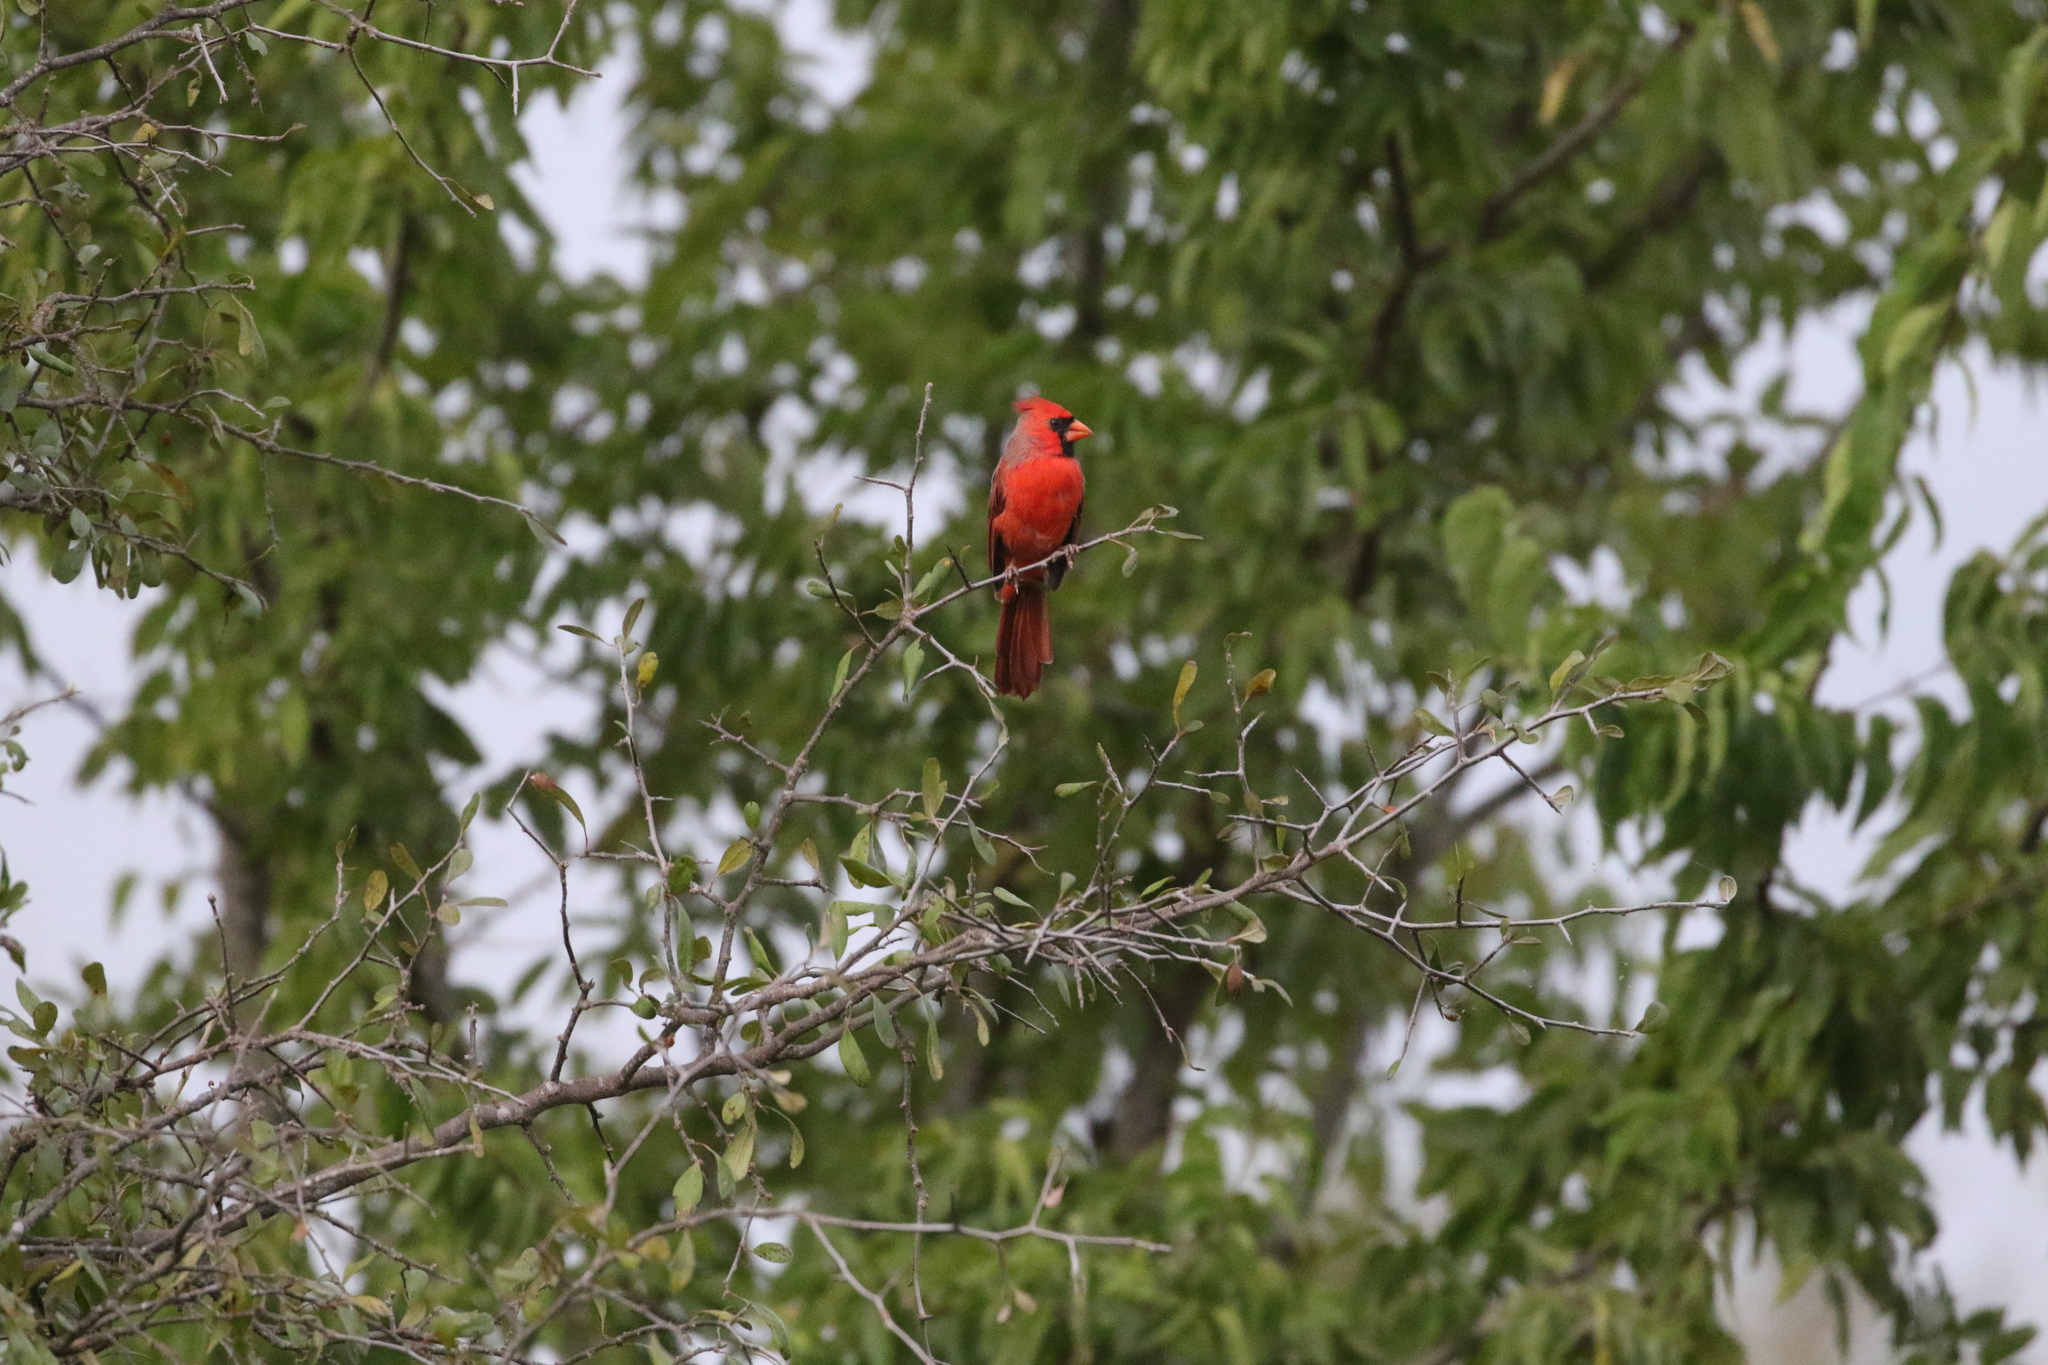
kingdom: Animalia
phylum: Chordata
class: Aves
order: Passeriformes
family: Cardinalidae
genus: Cardinalis
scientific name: Cardinalis cardinalis
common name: Northern cardinal
